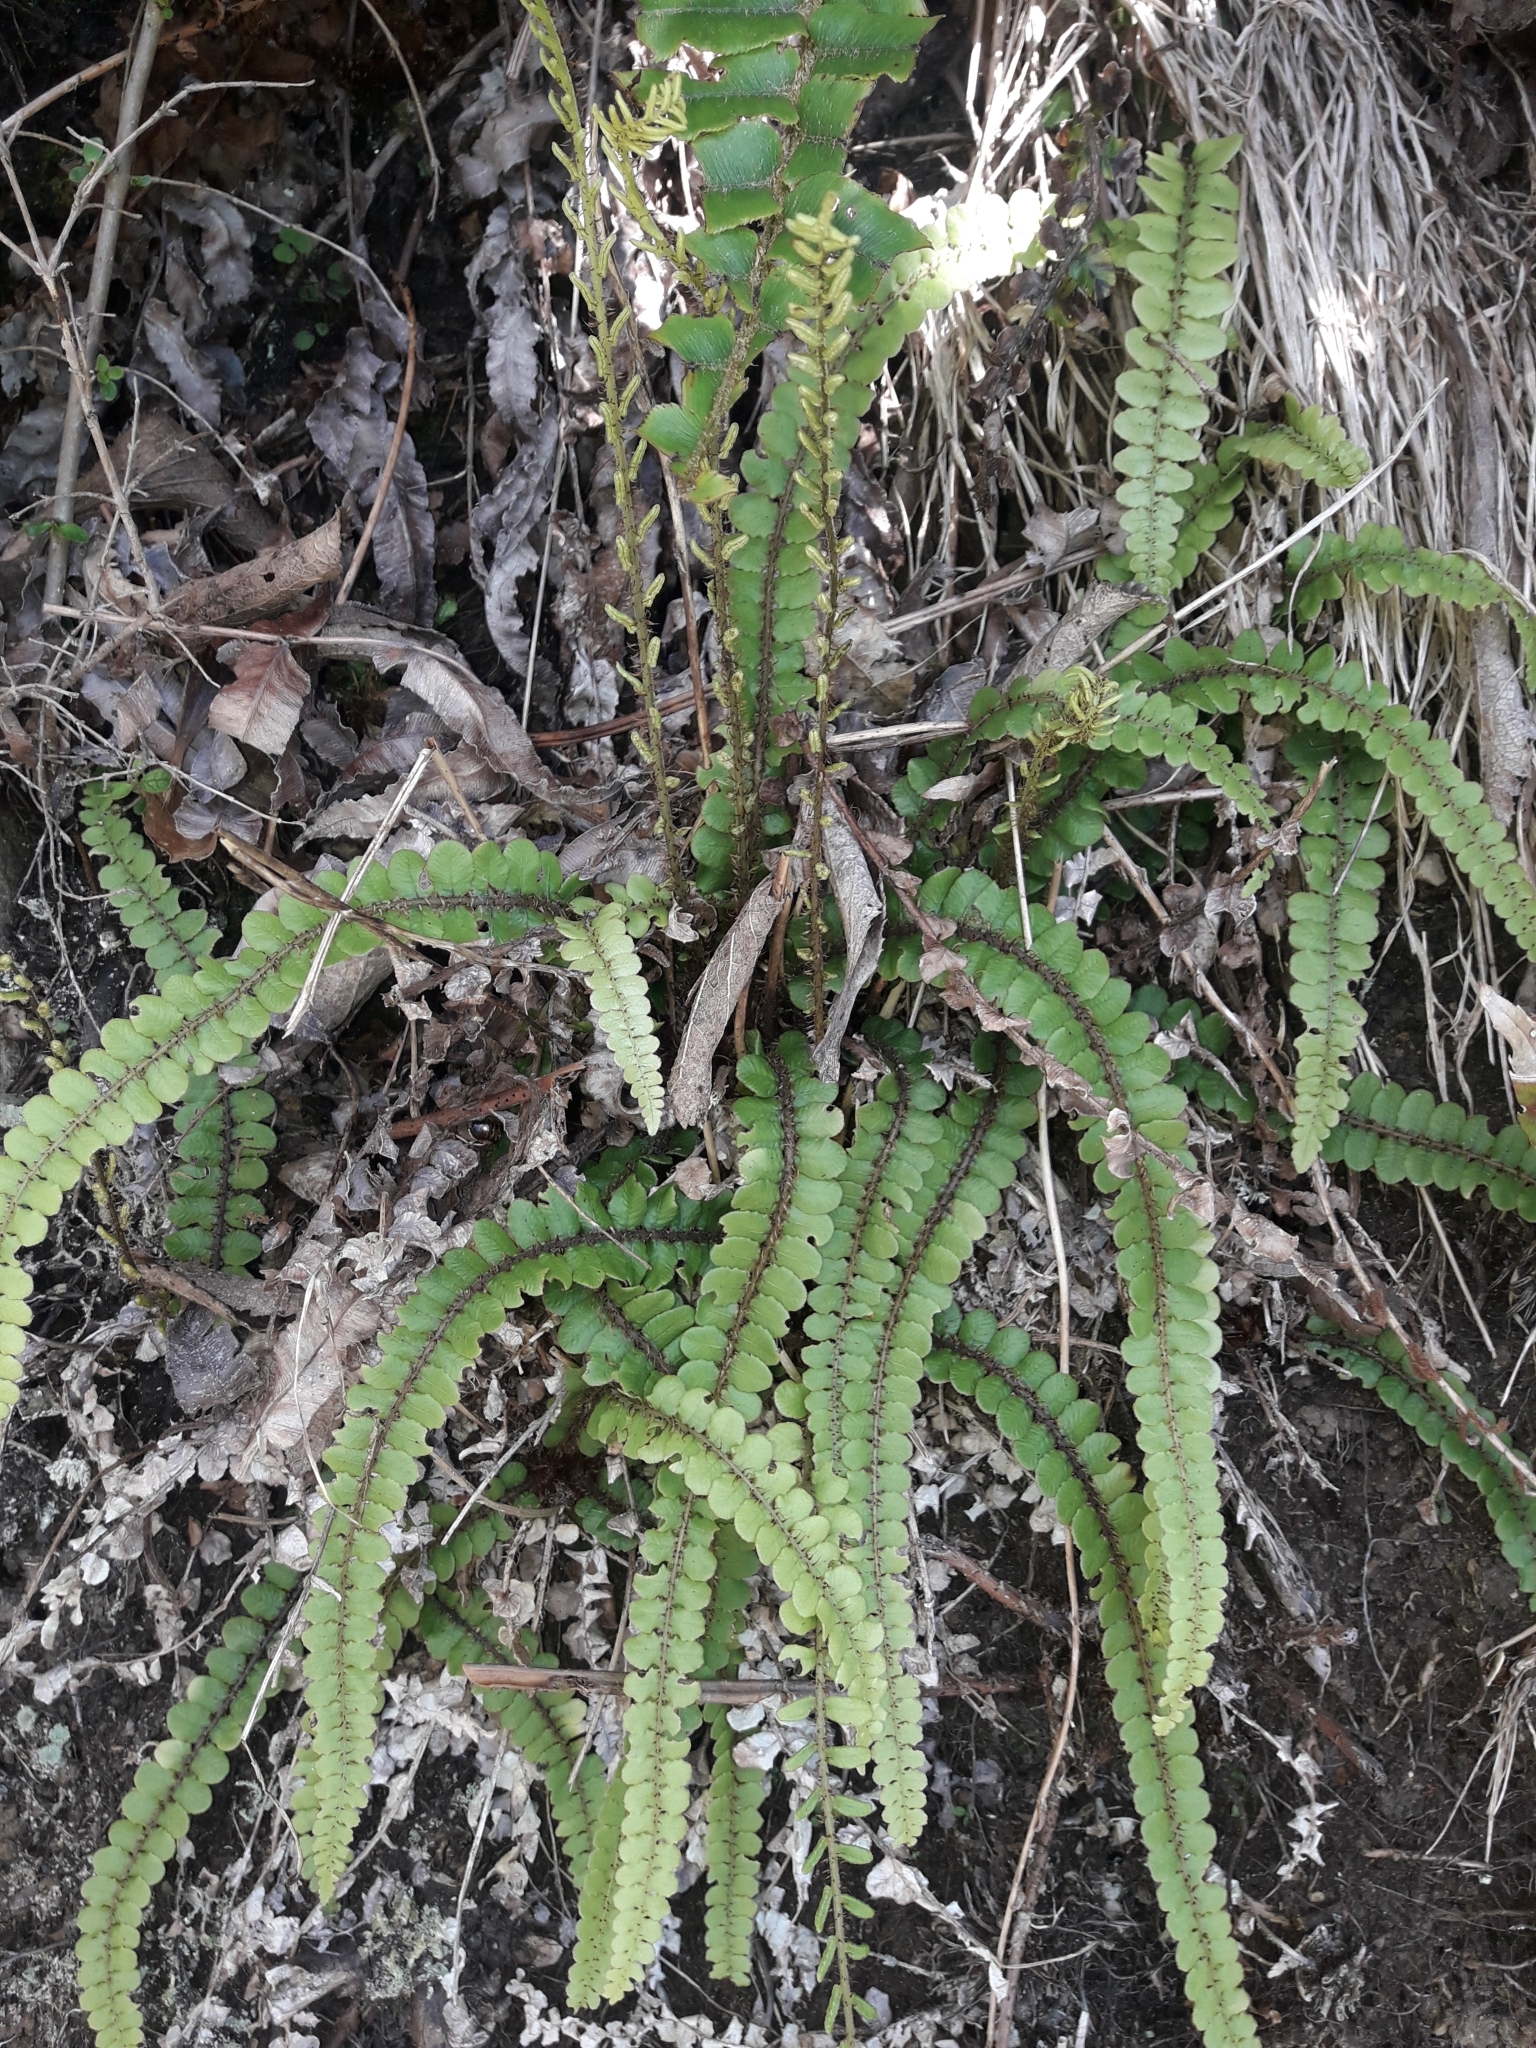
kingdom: Plantae
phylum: Tracheophyta
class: Polypodiopsida
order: Polypodiales
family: Blechnaceae
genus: Cranfillia
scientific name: Cranfillia fluviatilis
